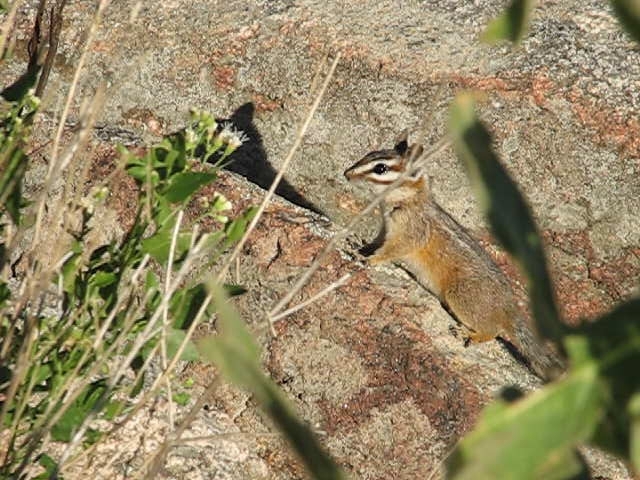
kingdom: Animalia
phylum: Chordata
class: Mammalia
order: Rodentia
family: Sciuridae
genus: Tamias
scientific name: Tamias dorsalis
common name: Cliff chipmunk
